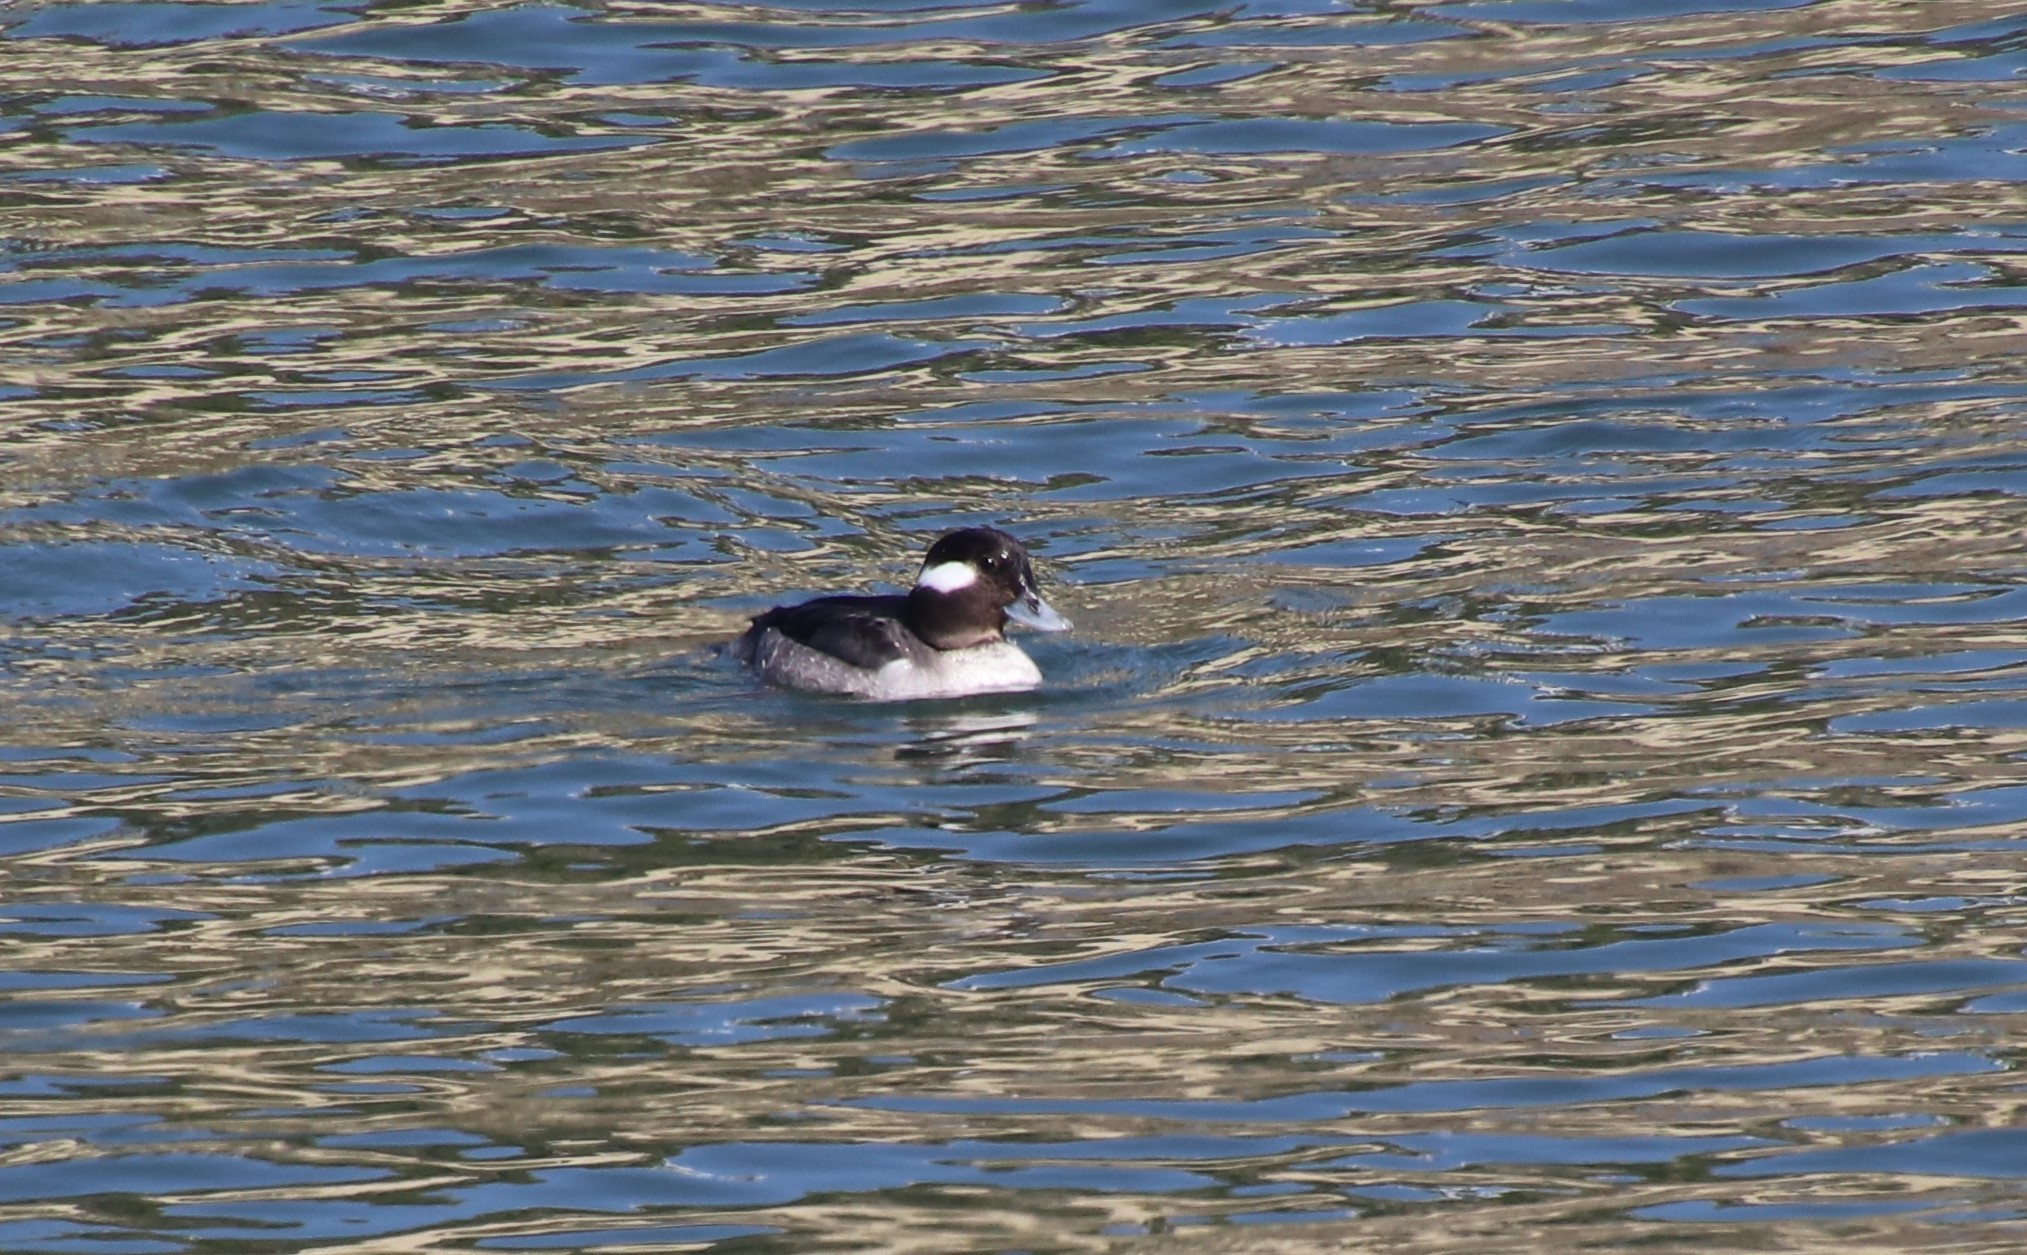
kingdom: Animalia
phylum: Chordata
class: Aves
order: Anseriformes
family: Anatidae
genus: Bucephala
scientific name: Bucephala albeola
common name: Bufflehead
